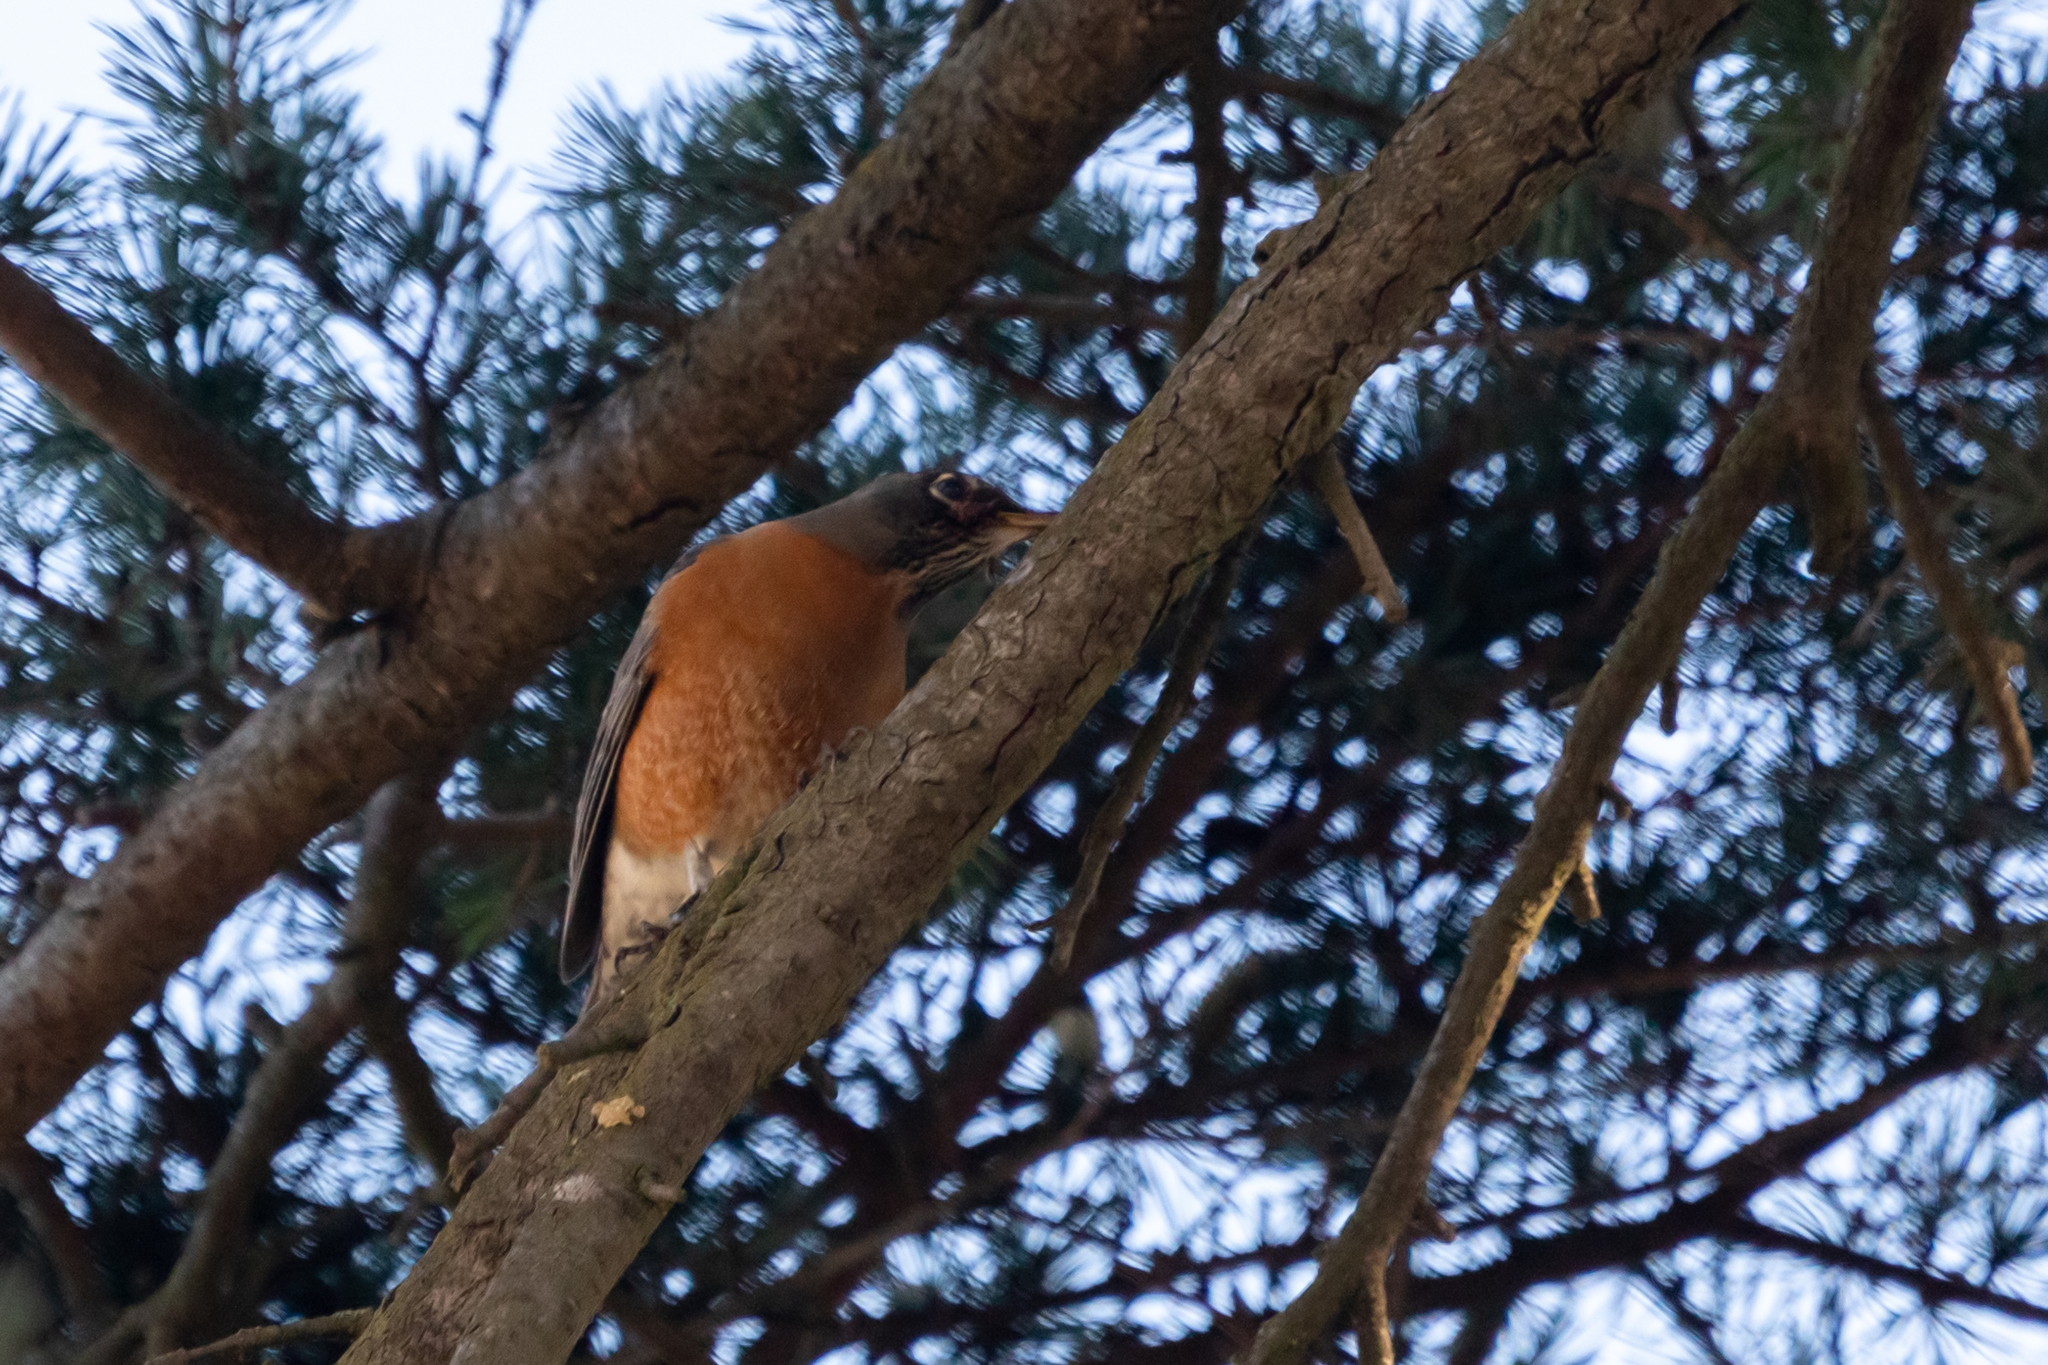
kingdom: Animalia
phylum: Chordata
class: Aves
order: Passeriformes
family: Turdidae
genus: Turdus
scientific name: Turdus migratorius
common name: American robin
